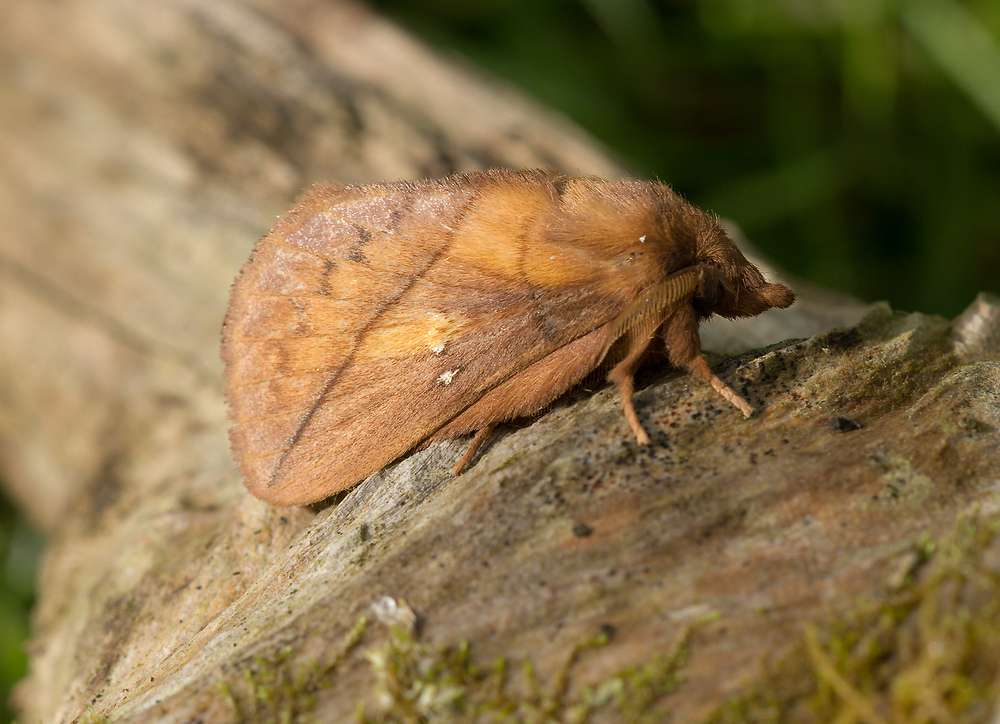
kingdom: Animalia
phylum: Arthropoda
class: Insecta
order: Lepidoptera
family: Lasiocampidae
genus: Euthrix
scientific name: Euthrix potatoria
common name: Drinker
